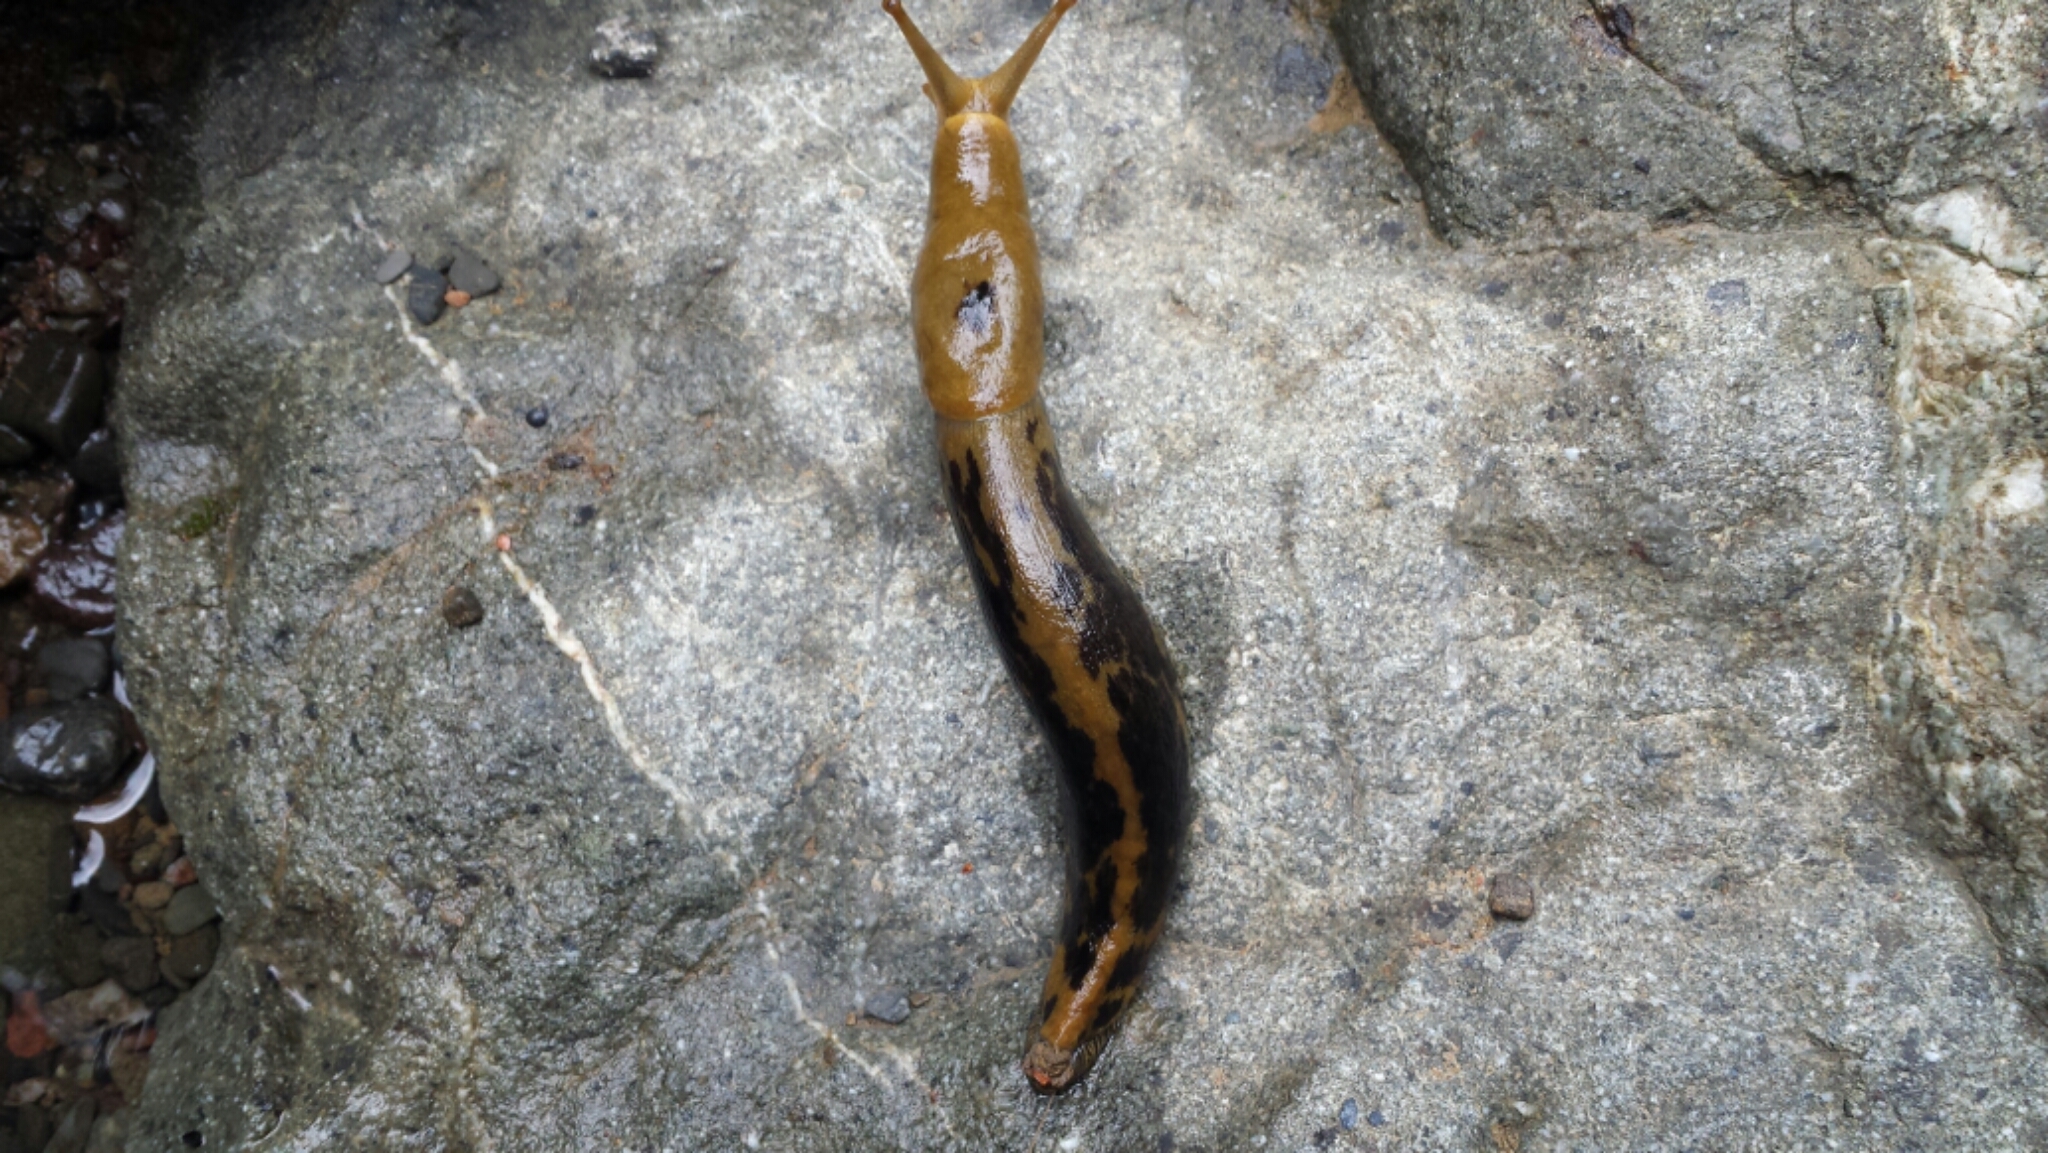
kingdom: Animalia
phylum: Mollusca
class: Gastropoda
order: Stylommatophora
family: Ariolimacidae
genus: Ariolimax
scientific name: Ariolimax buttoni
